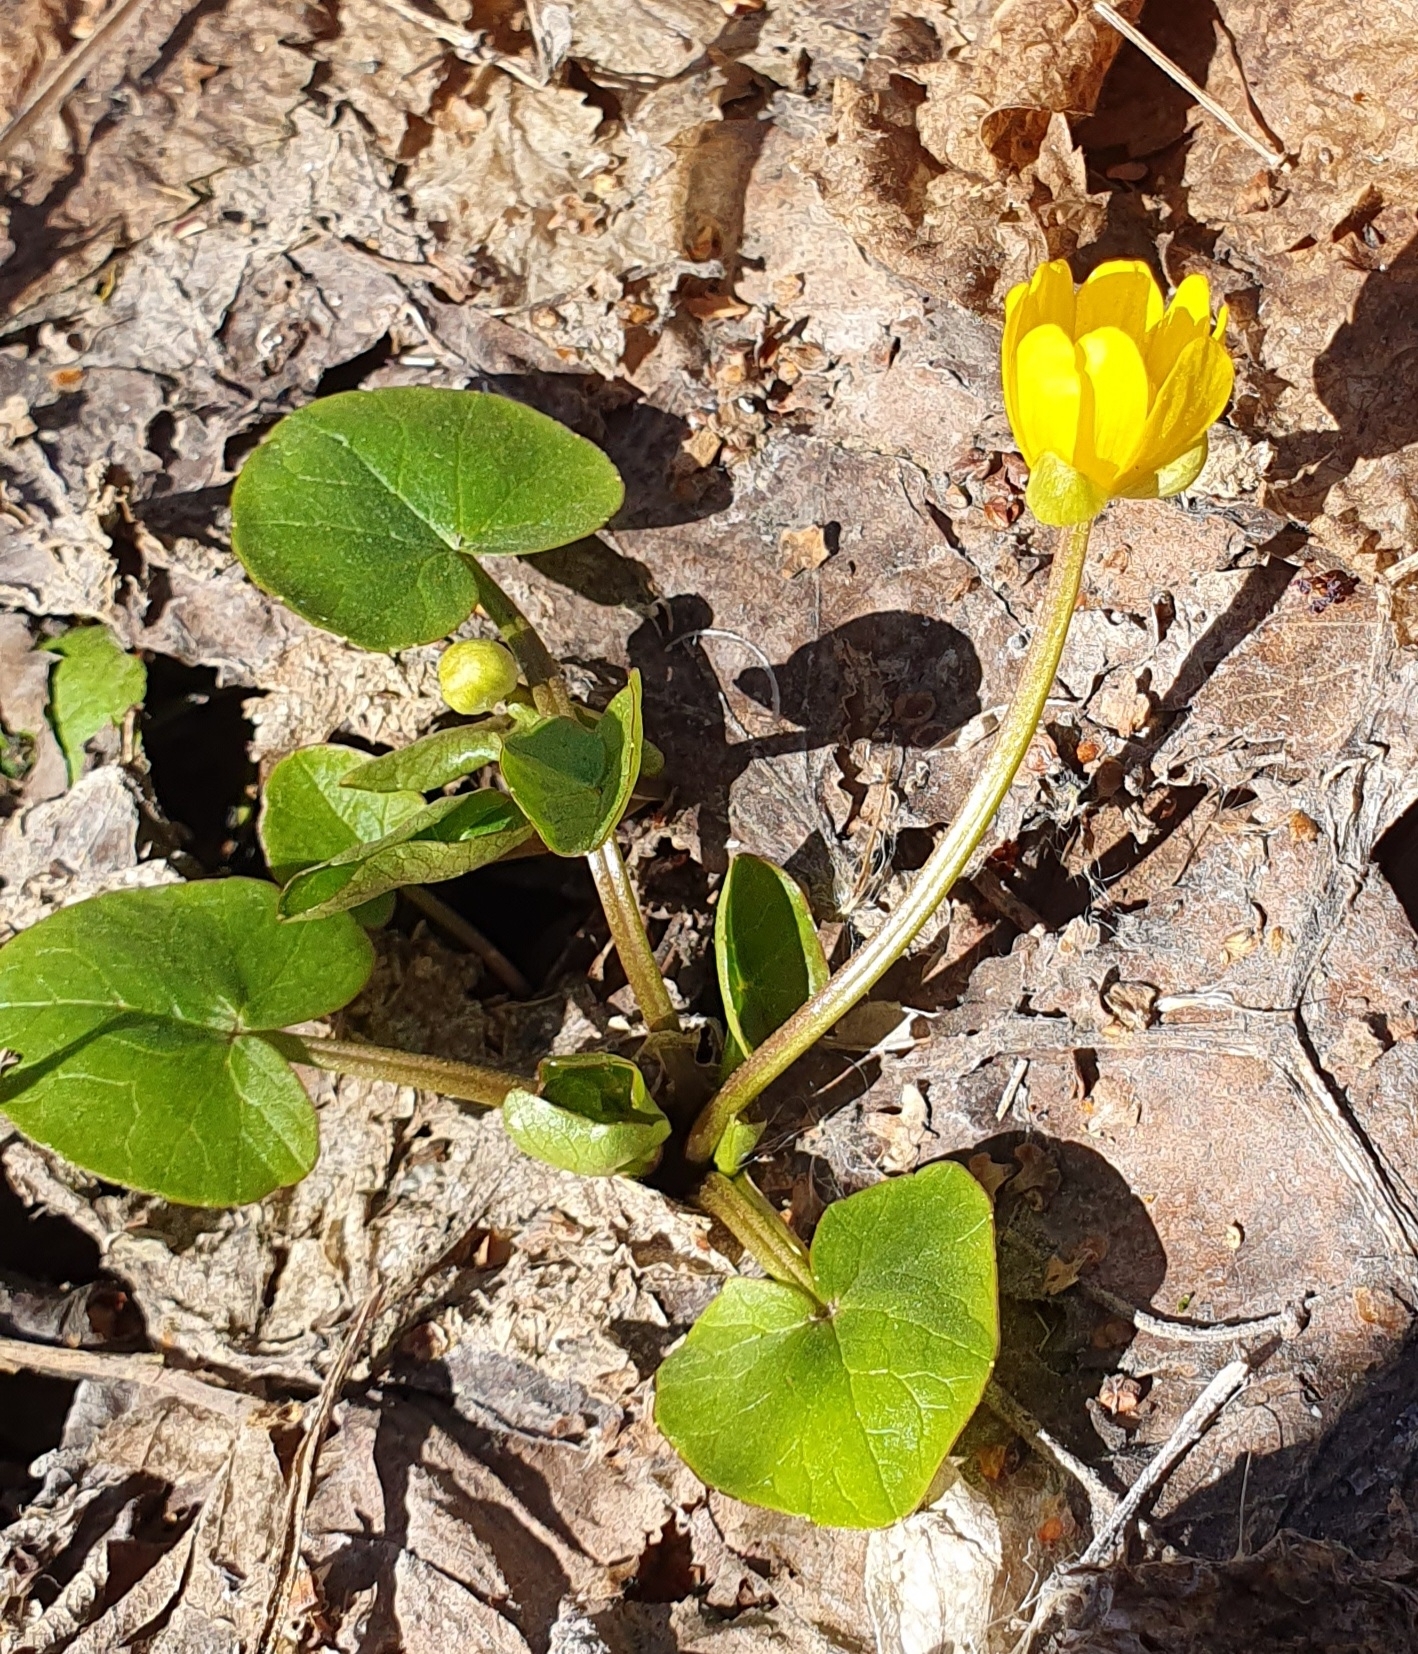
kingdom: Plantae
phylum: Tracheophyta
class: Magnoliopsida
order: Ranunculales
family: Ranunculaceae
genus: Ficaria
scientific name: Ficaria verna
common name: Lesser celandine
